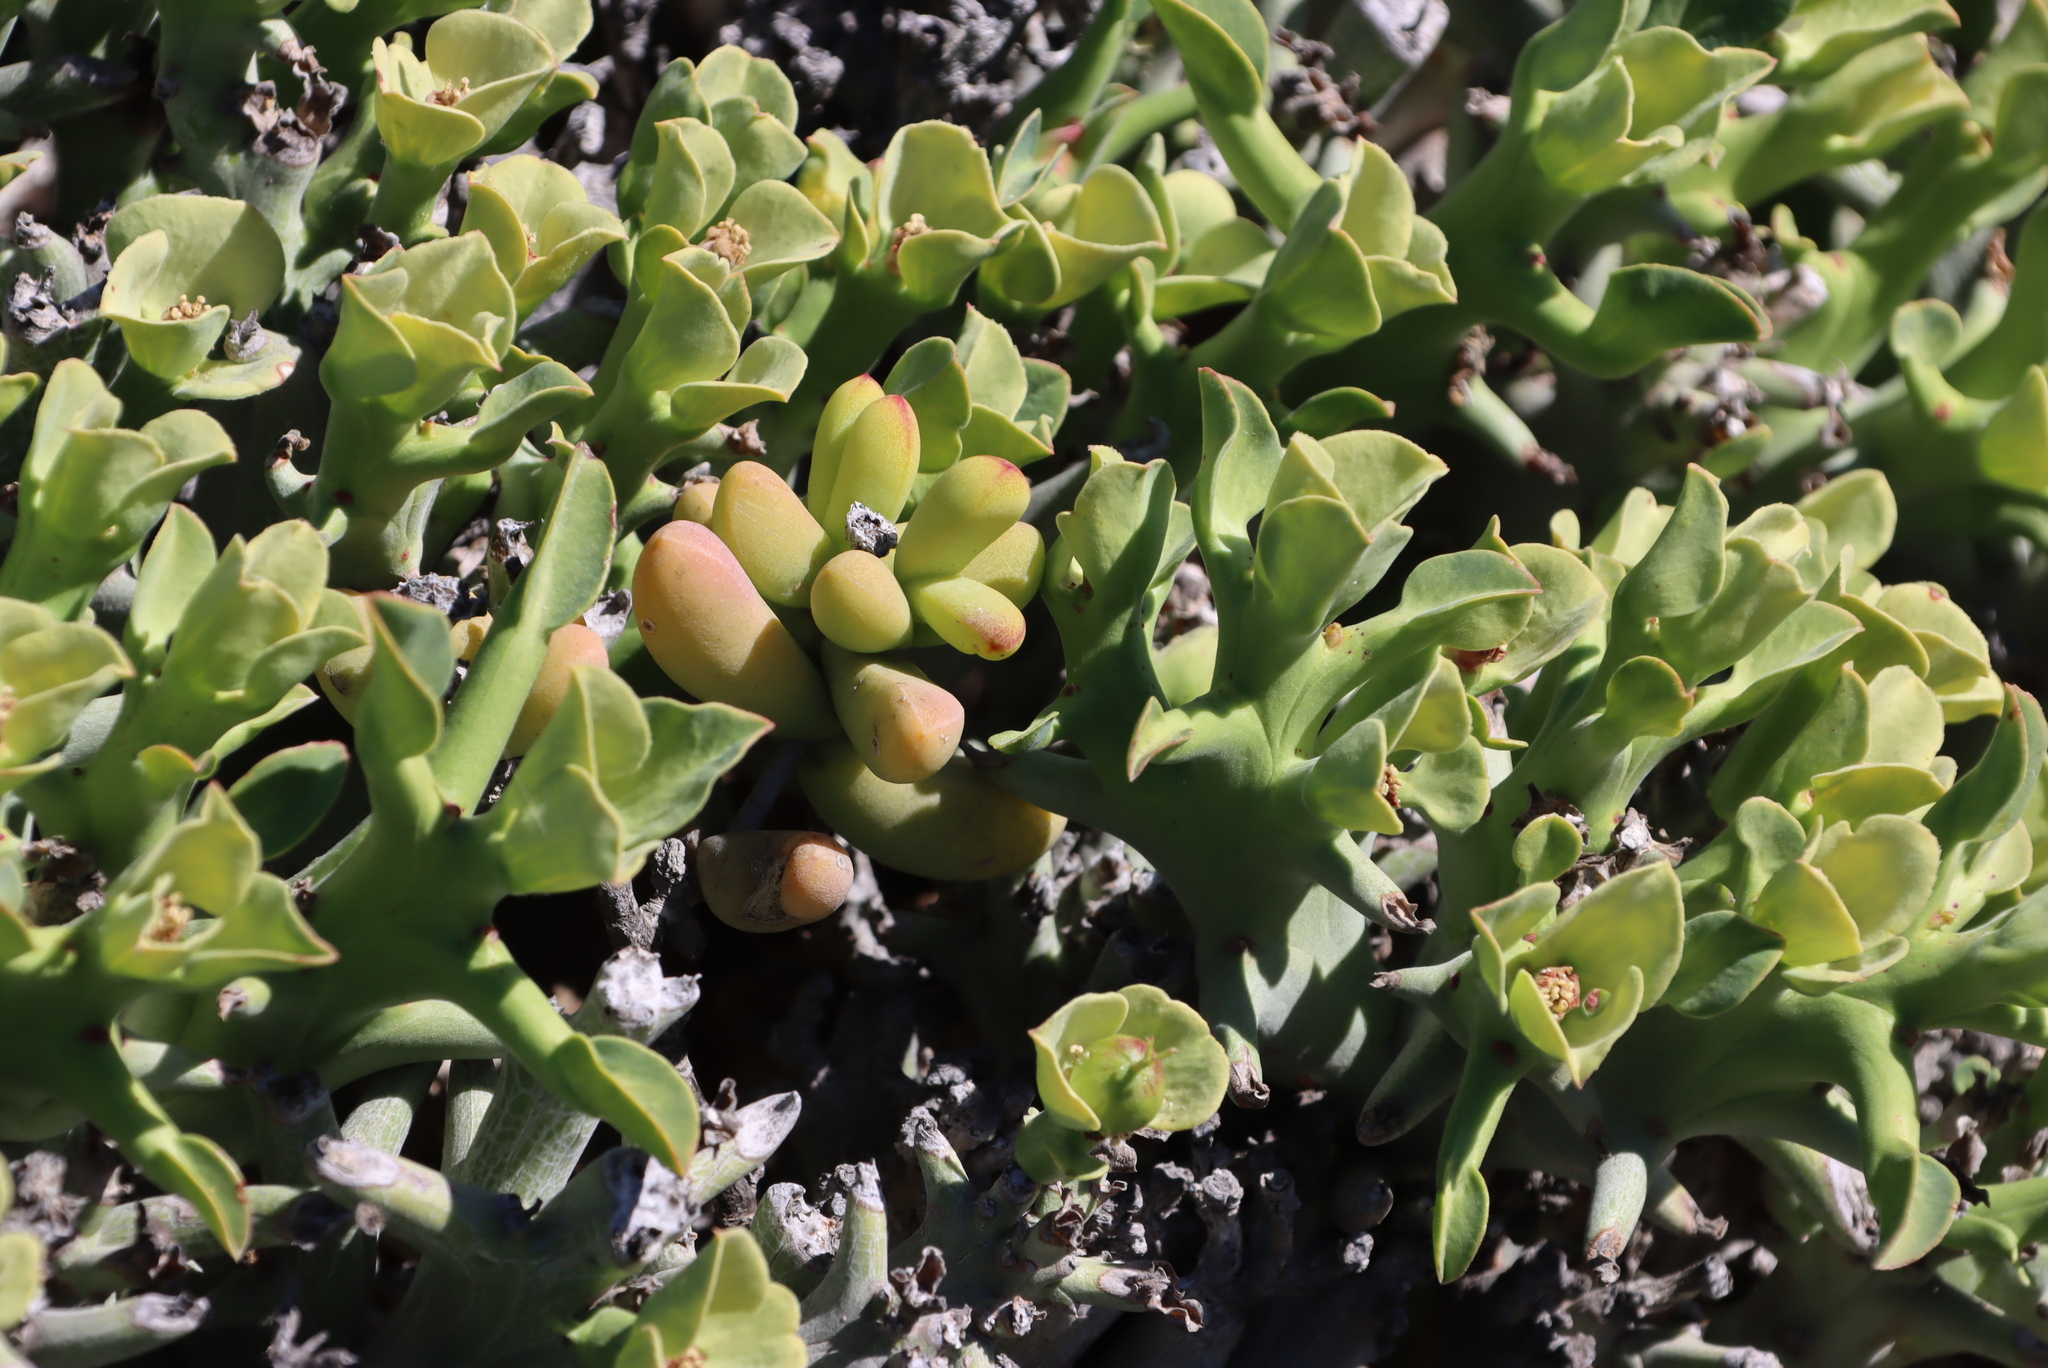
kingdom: Plantae
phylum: Tracheophyta
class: Magnoliopsida
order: Malpighiales
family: Euphorbiaceae
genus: Euphorbia
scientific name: Euphorbia hamata
